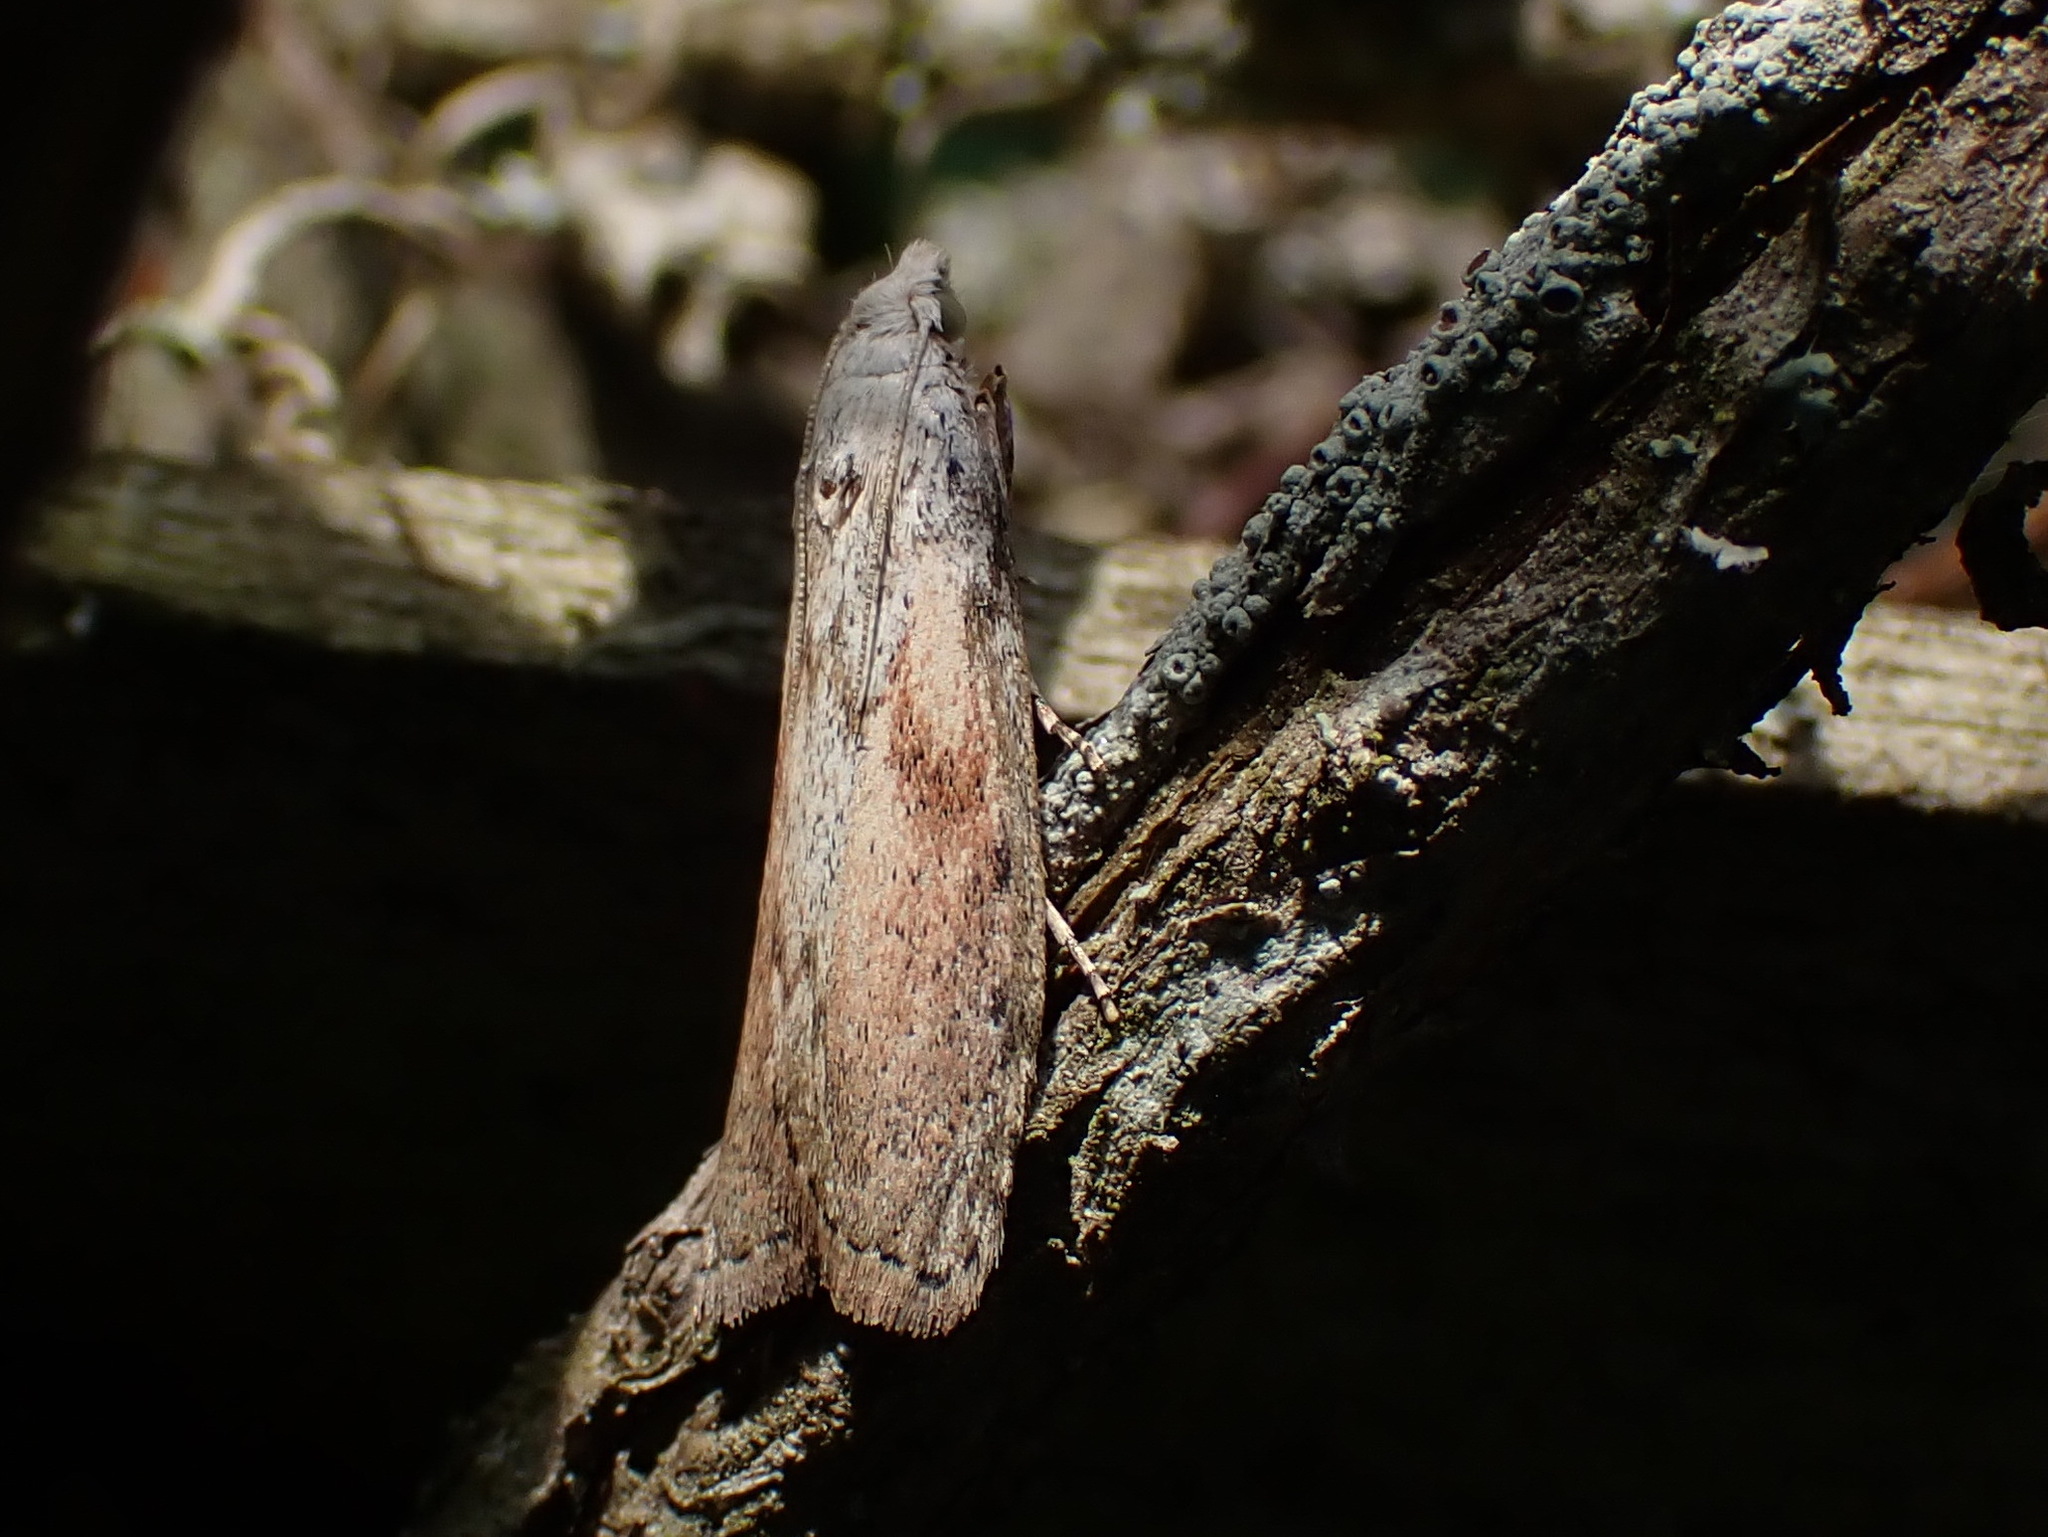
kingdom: Animalia
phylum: Arthropoda
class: Insecta
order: Lepidoptera
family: Pyralidae
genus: Aphomia
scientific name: Aphomia sociella
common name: Bee moth
